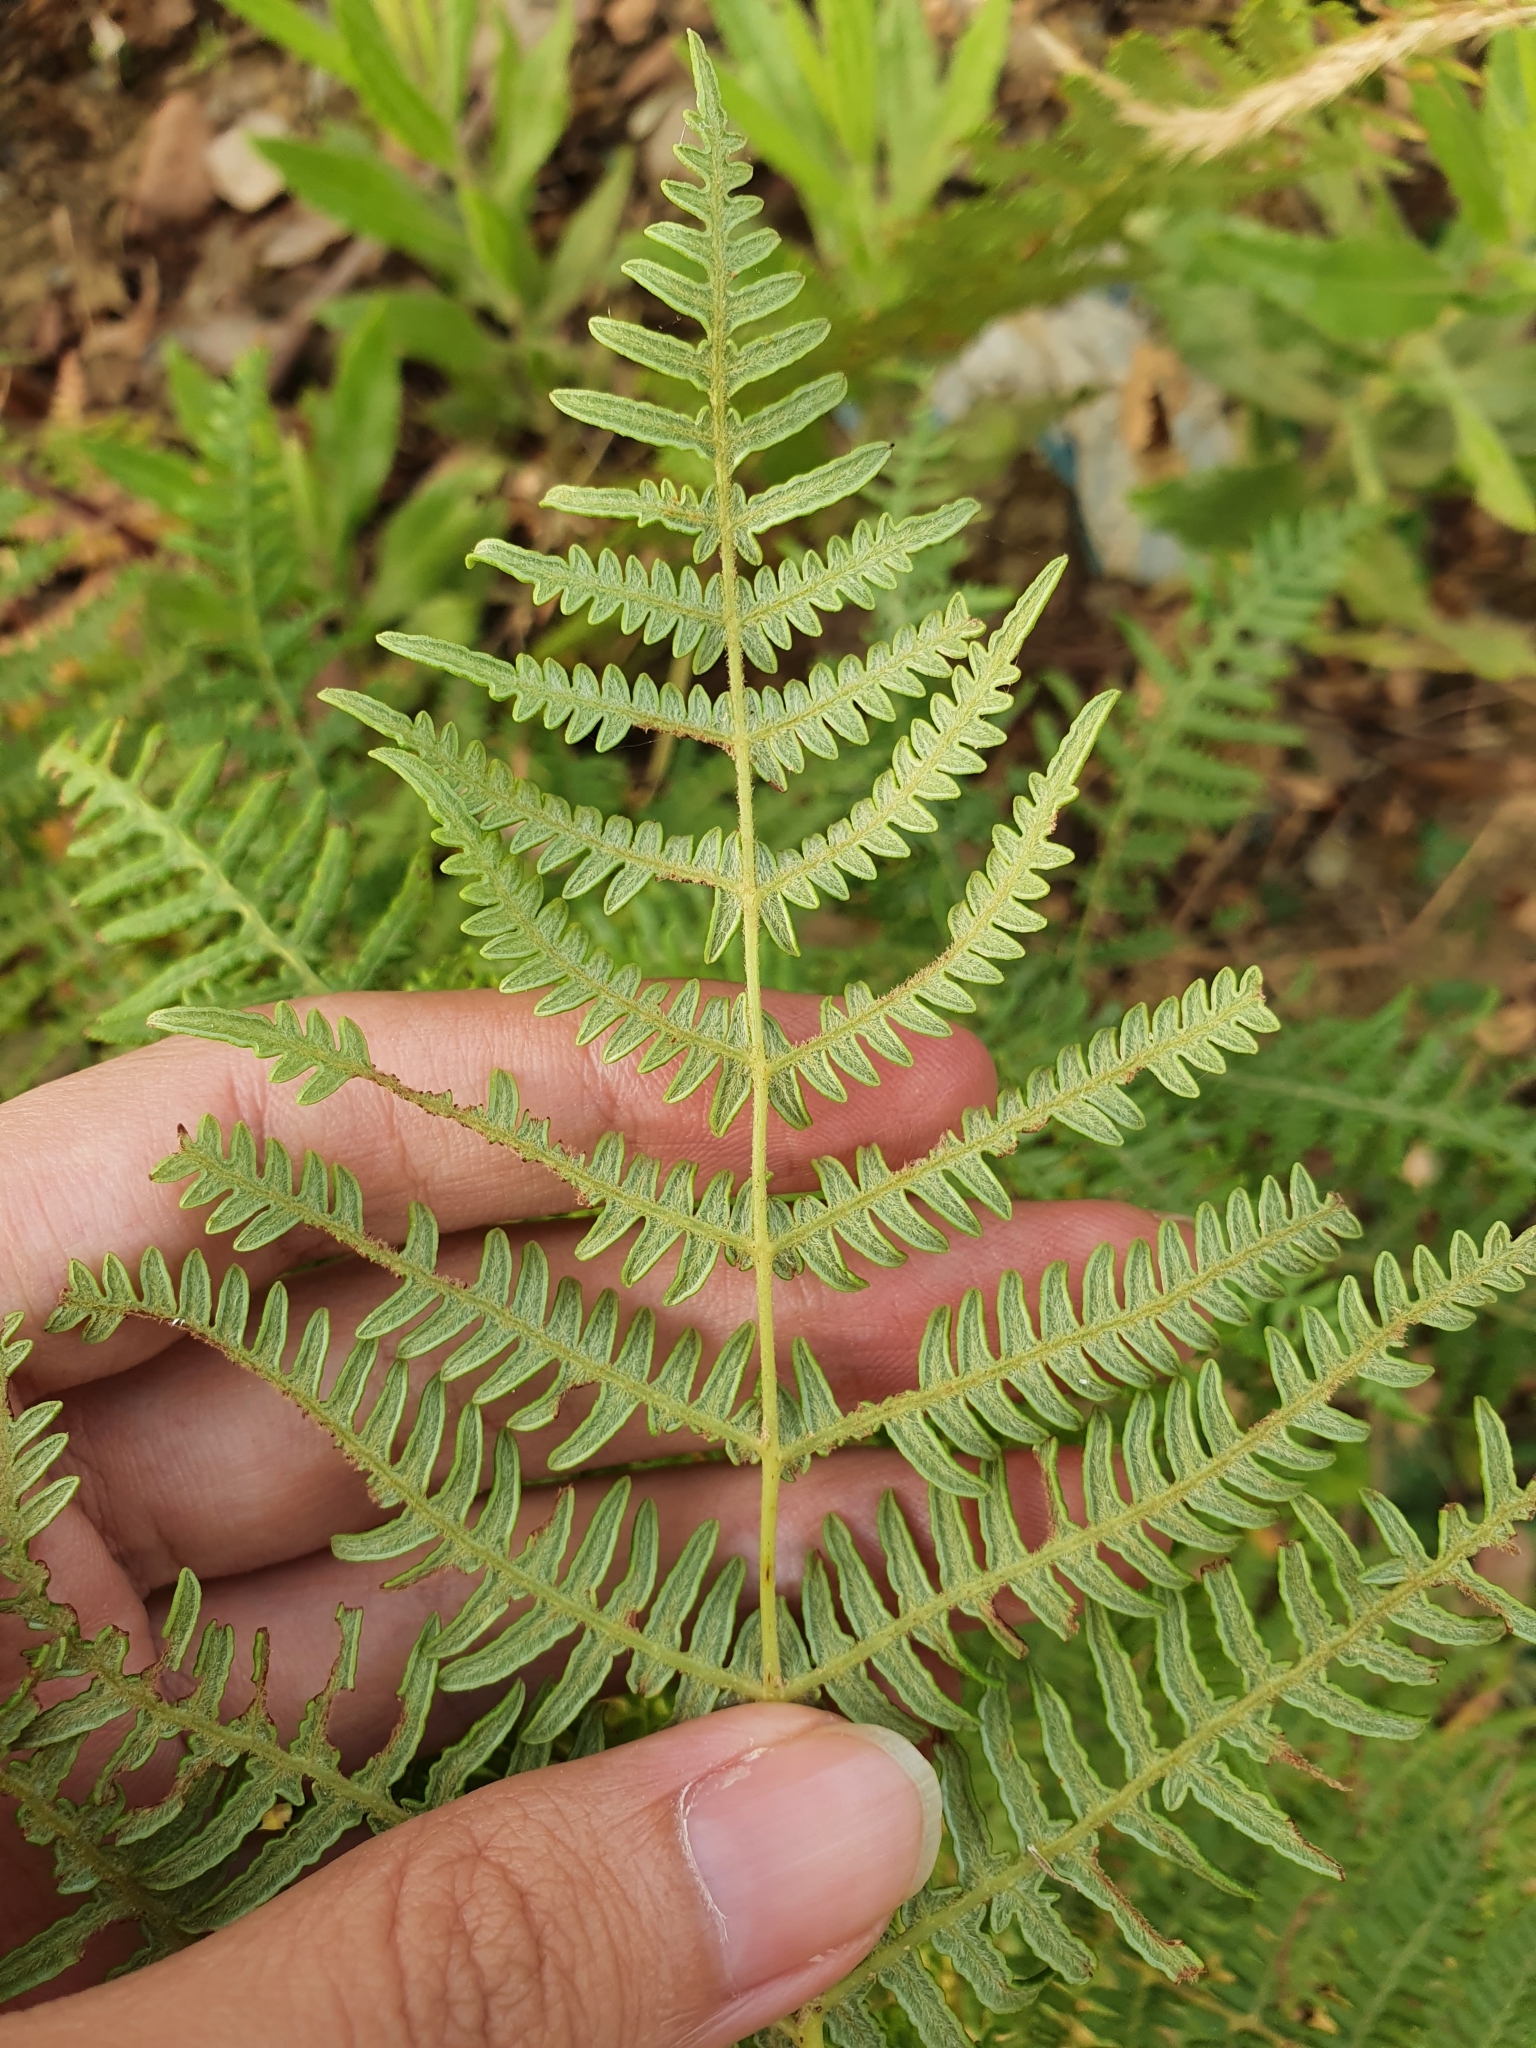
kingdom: Plantae
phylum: Tracheophyta
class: Polypodiopsida
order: Polypodiales
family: Dennstaedtiaceae
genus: Pteridium
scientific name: Pteridium aquilinum
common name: Bracken
